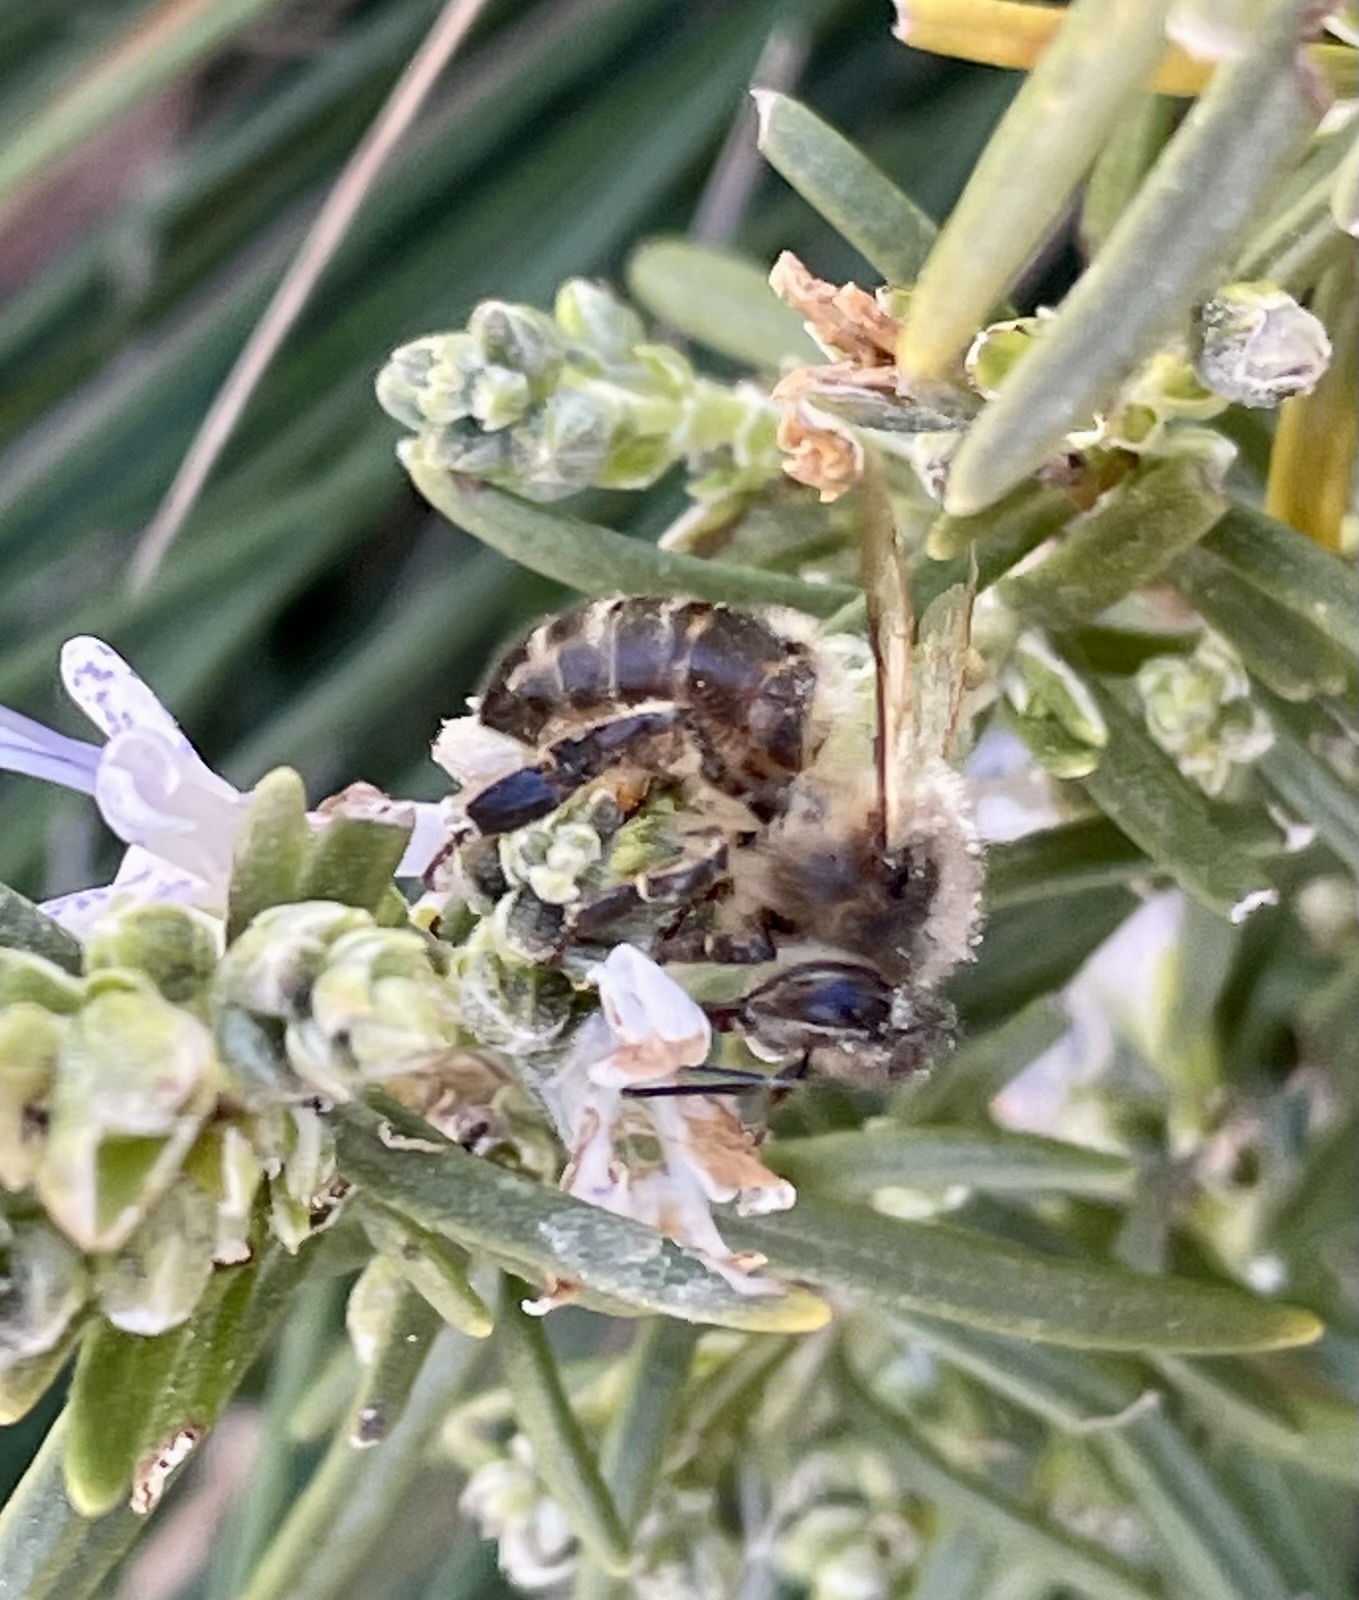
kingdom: Animalia
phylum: Arthropoda
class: Insecta
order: Hymenoptera
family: Apidae
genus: Apis
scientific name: Apis mellifera
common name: Honey bee
